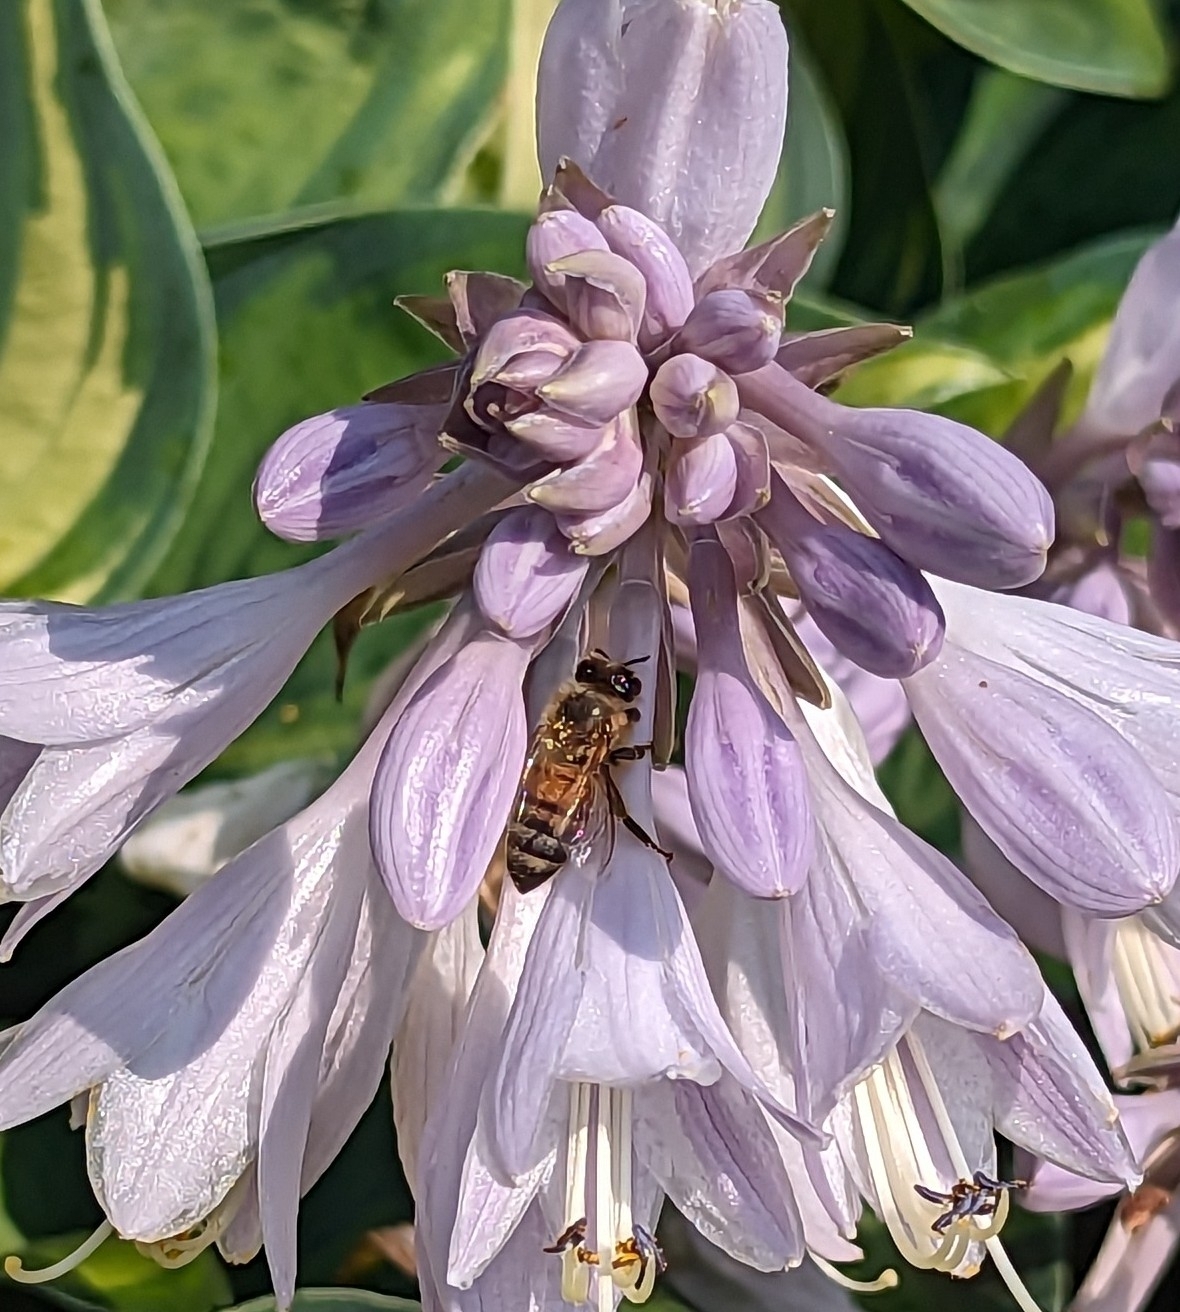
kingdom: Animalia
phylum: Arthropoda
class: Insecta
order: Hymenoptera
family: Apidae
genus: Apis
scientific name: Apis mellifera
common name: Honey bee
